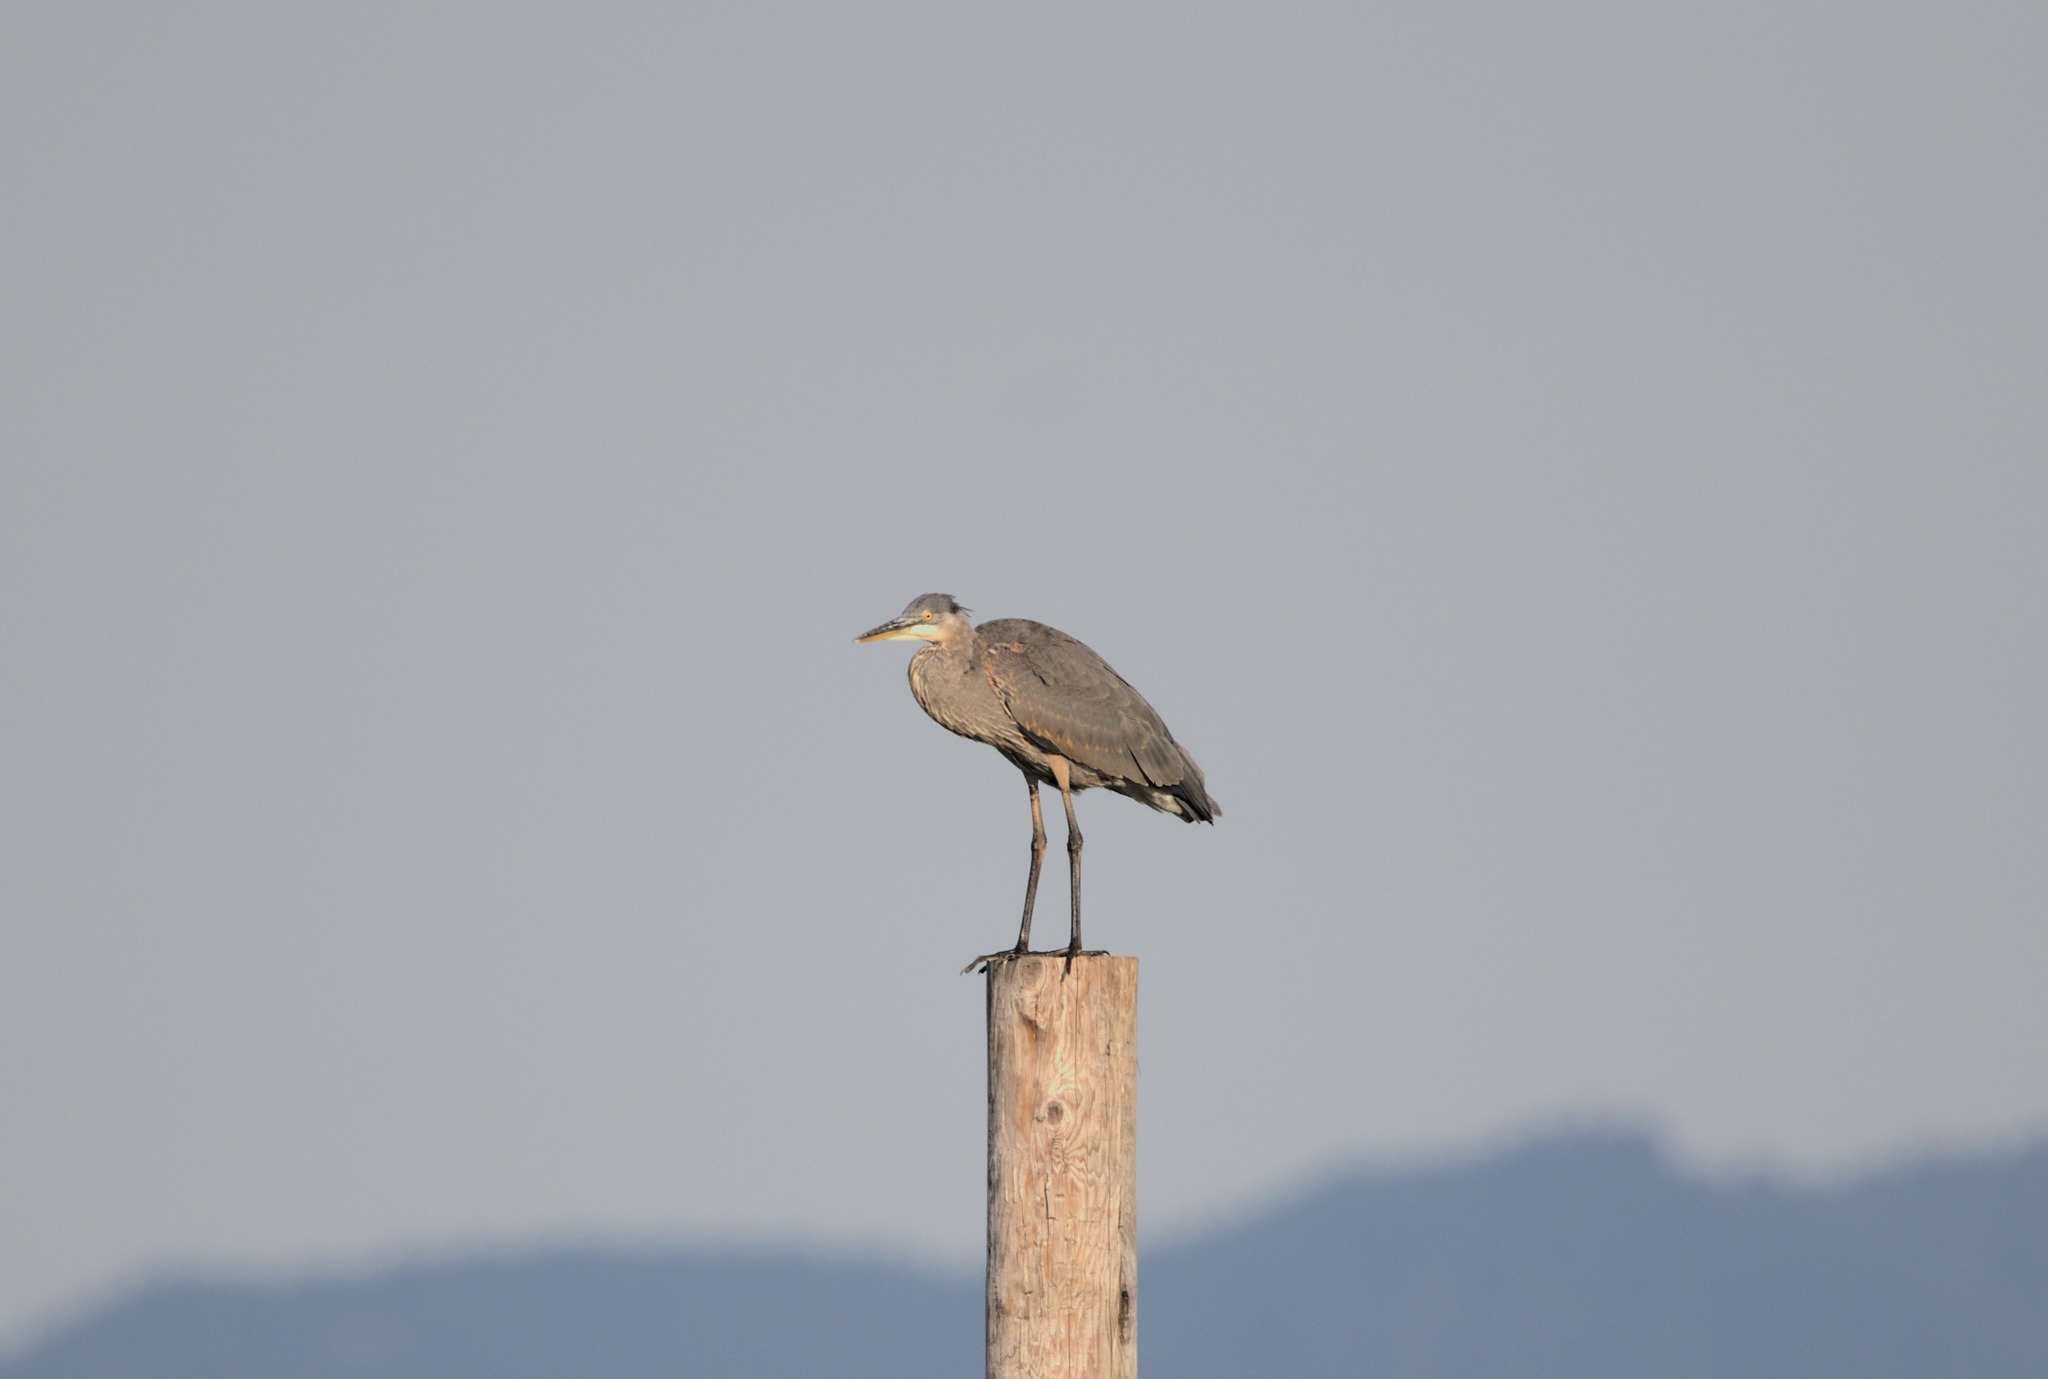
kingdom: Animalia
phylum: Chordata
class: Aves
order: Pelecaniformes
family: Ardeidae
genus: Ardea
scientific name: Ardea herodias
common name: Great blue heron
